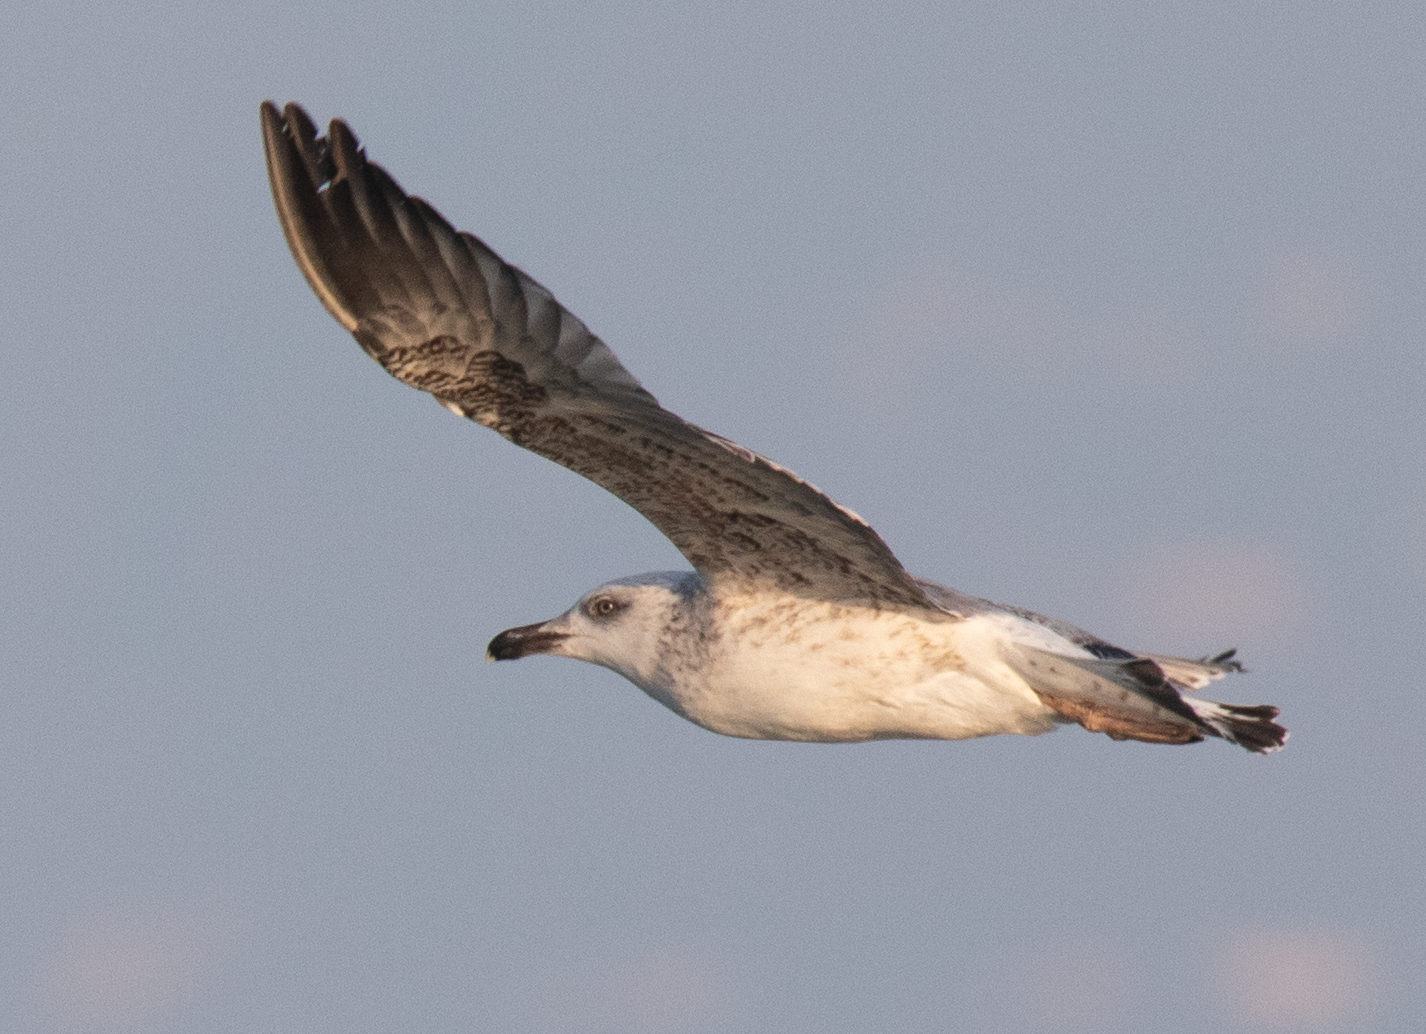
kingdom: Animalia
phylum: Chordata
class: Aves
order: Charadriiformes
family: Laridae
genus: Larus
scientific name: Larus michahellis
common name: Yellow-legged gull
